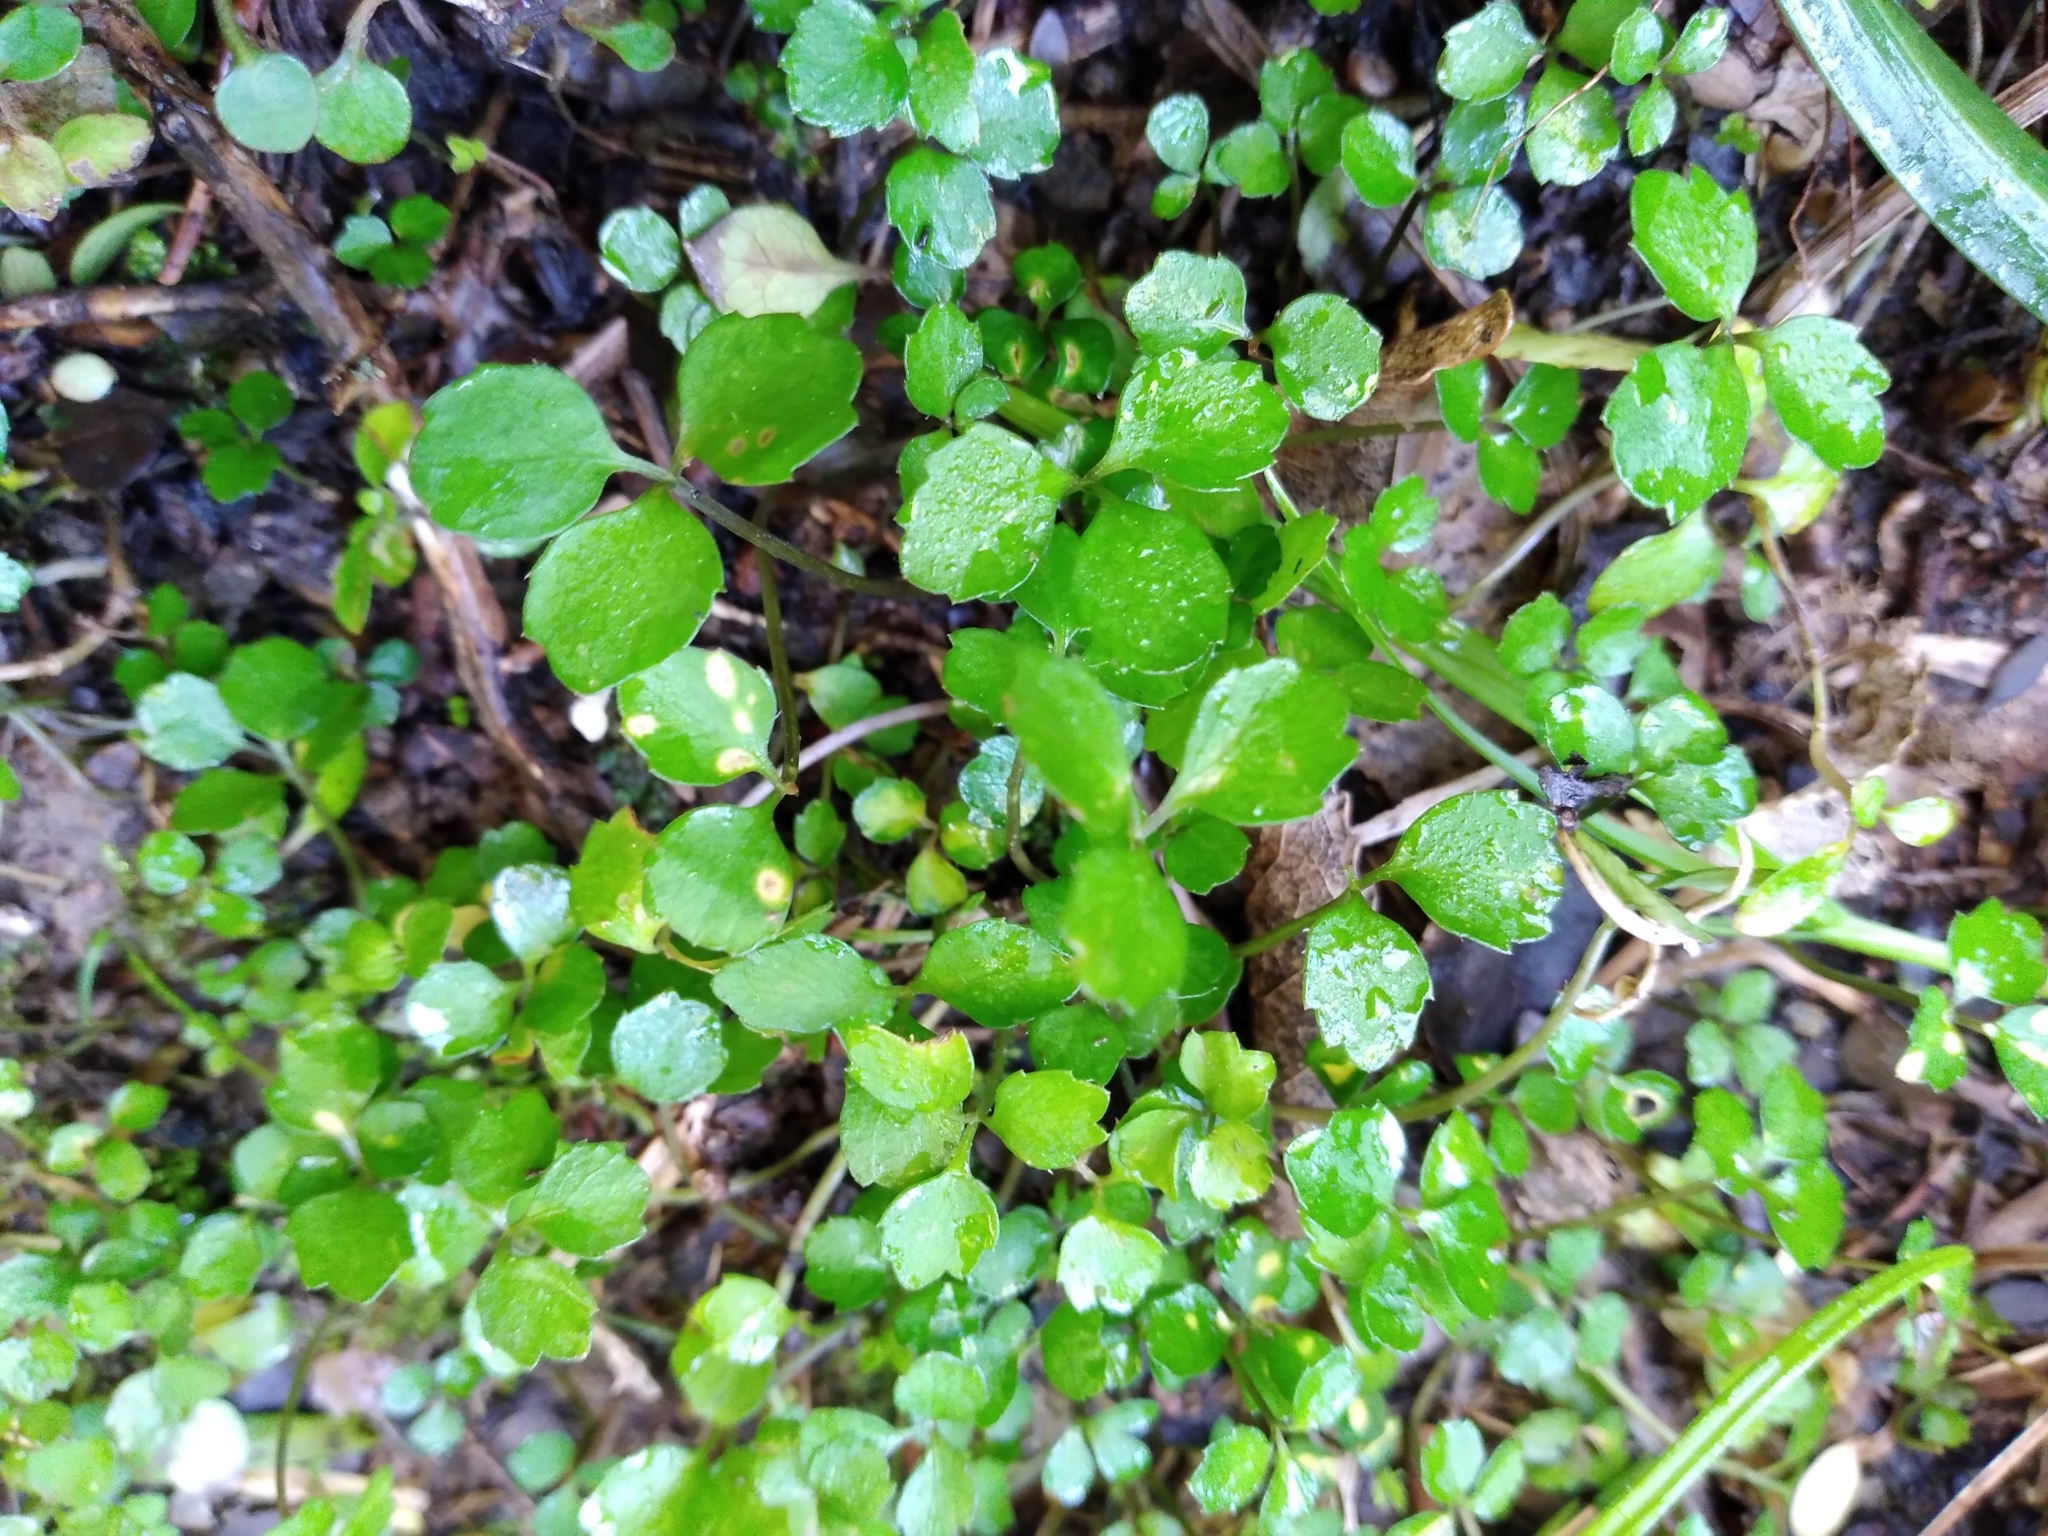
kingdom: Plantae
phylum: Tracheophyta
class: Magnoliopsida
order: Apiales
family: Apiaceae
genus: Azorella
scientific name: Azorella hookeri
